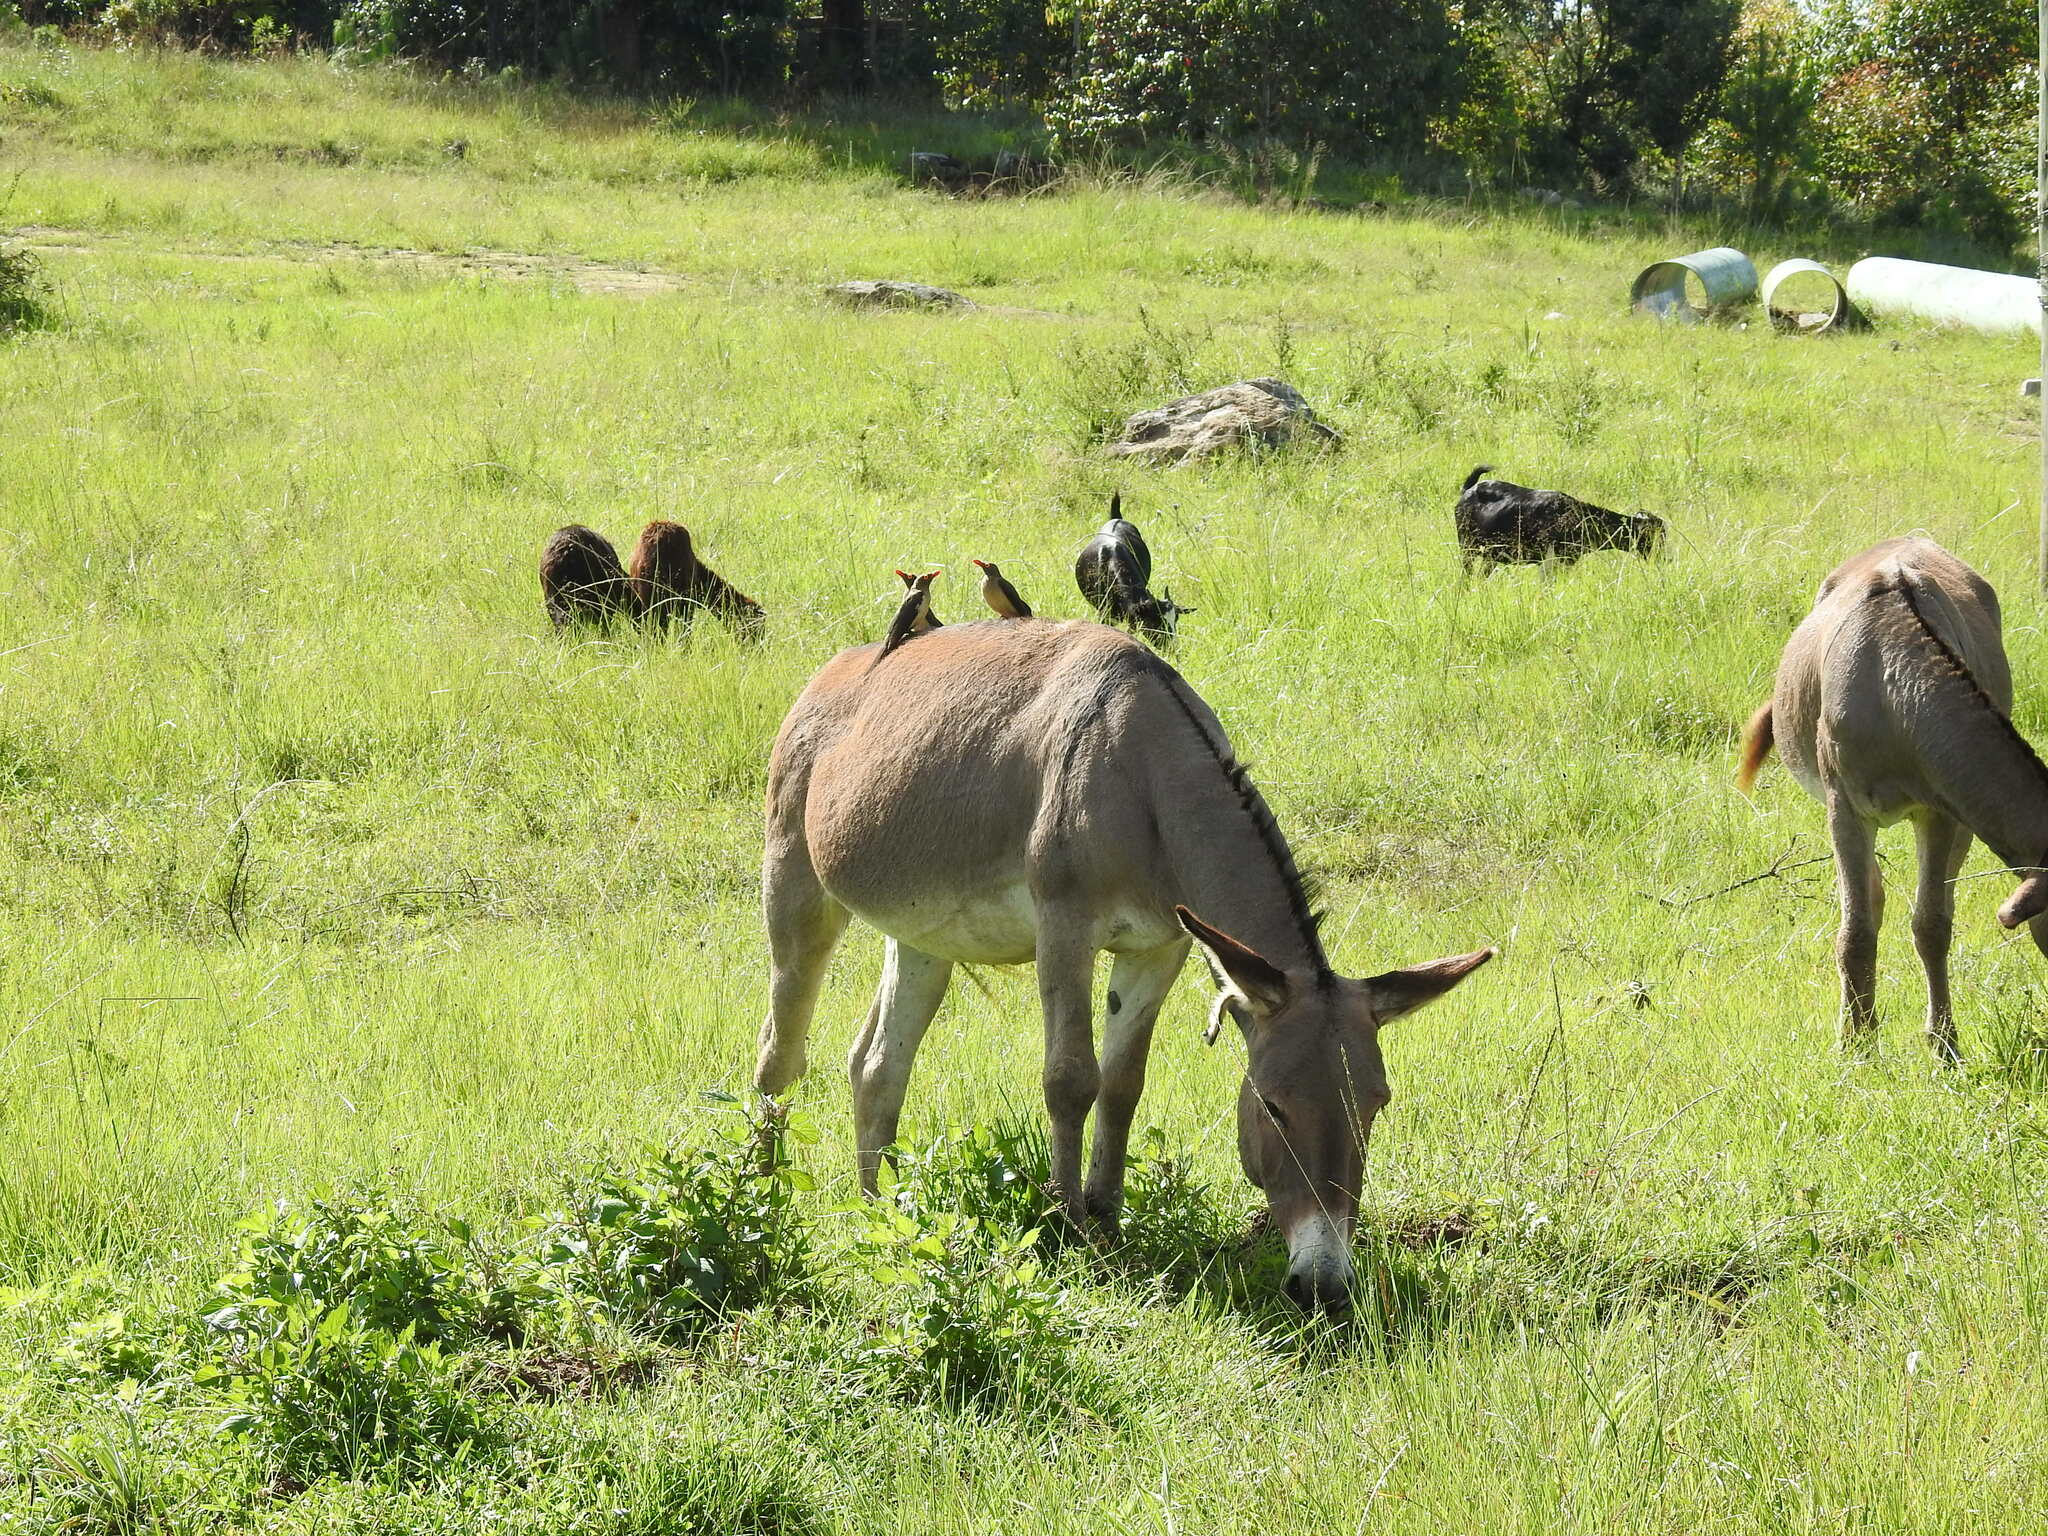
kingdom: Animalia
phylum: Chordata
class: Aves
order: Passeriformes
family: Buphagidae
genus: Buphagus
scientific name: Buphagus erythrorhynchus
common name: Red-billed oxpecker
